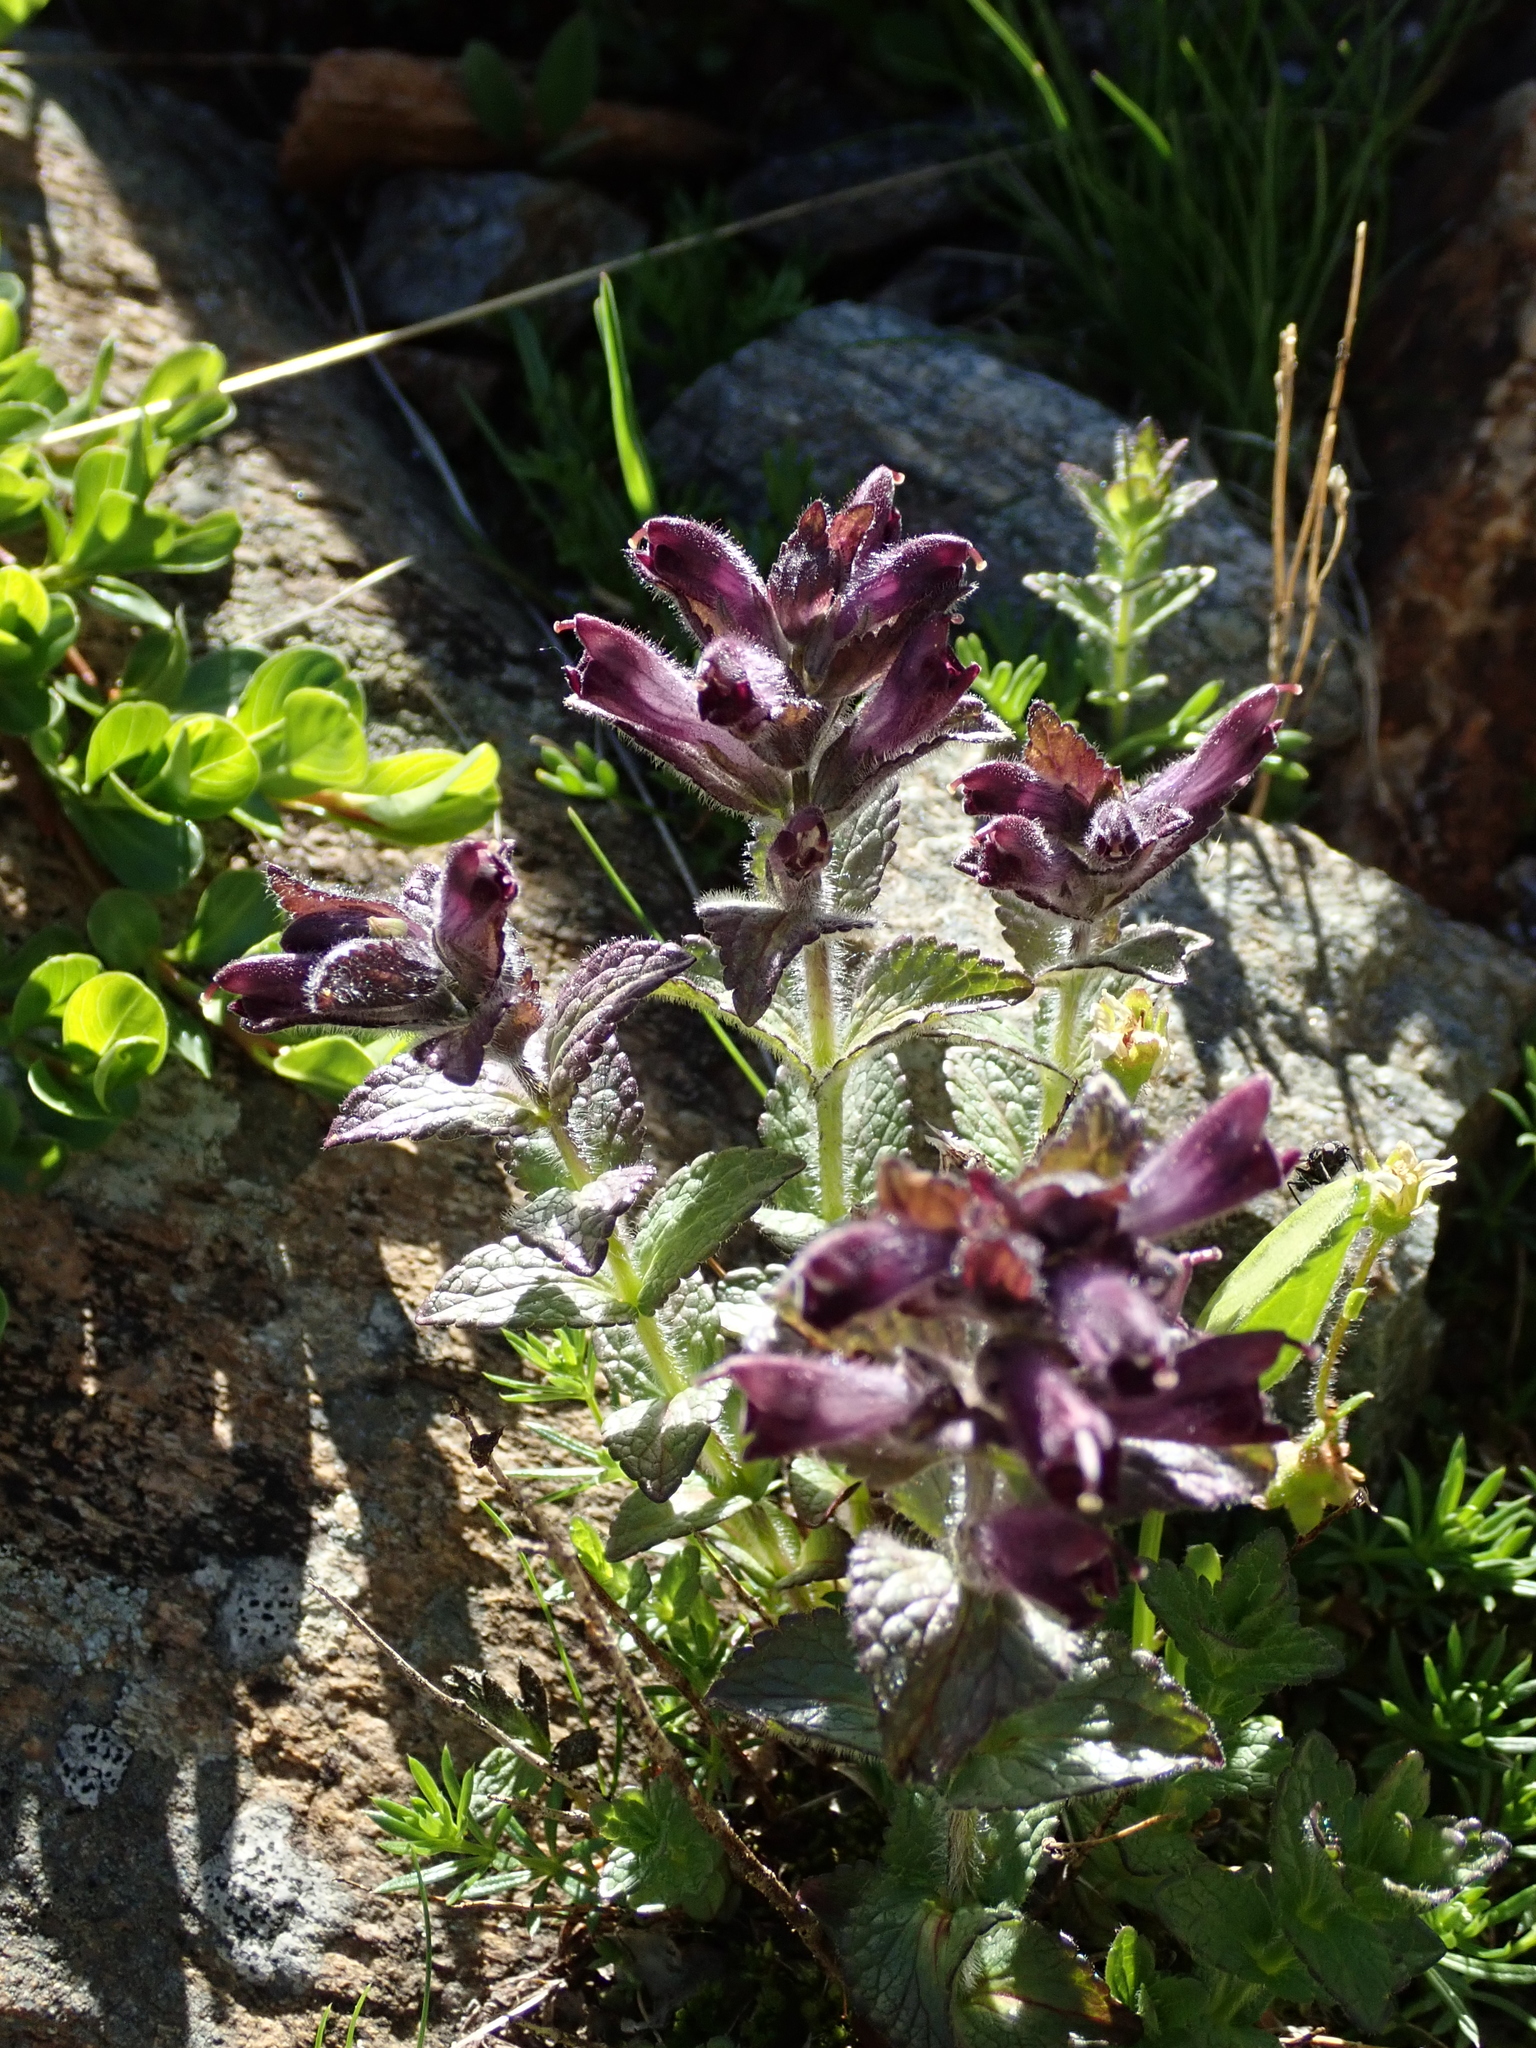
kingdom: Plantae
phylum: Tracheophyta
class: Magnoliopsida
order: Lamiales
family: Orobanchaceae
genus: Bartsia
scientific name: Bartsia alpina
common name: Alpine bartsia
